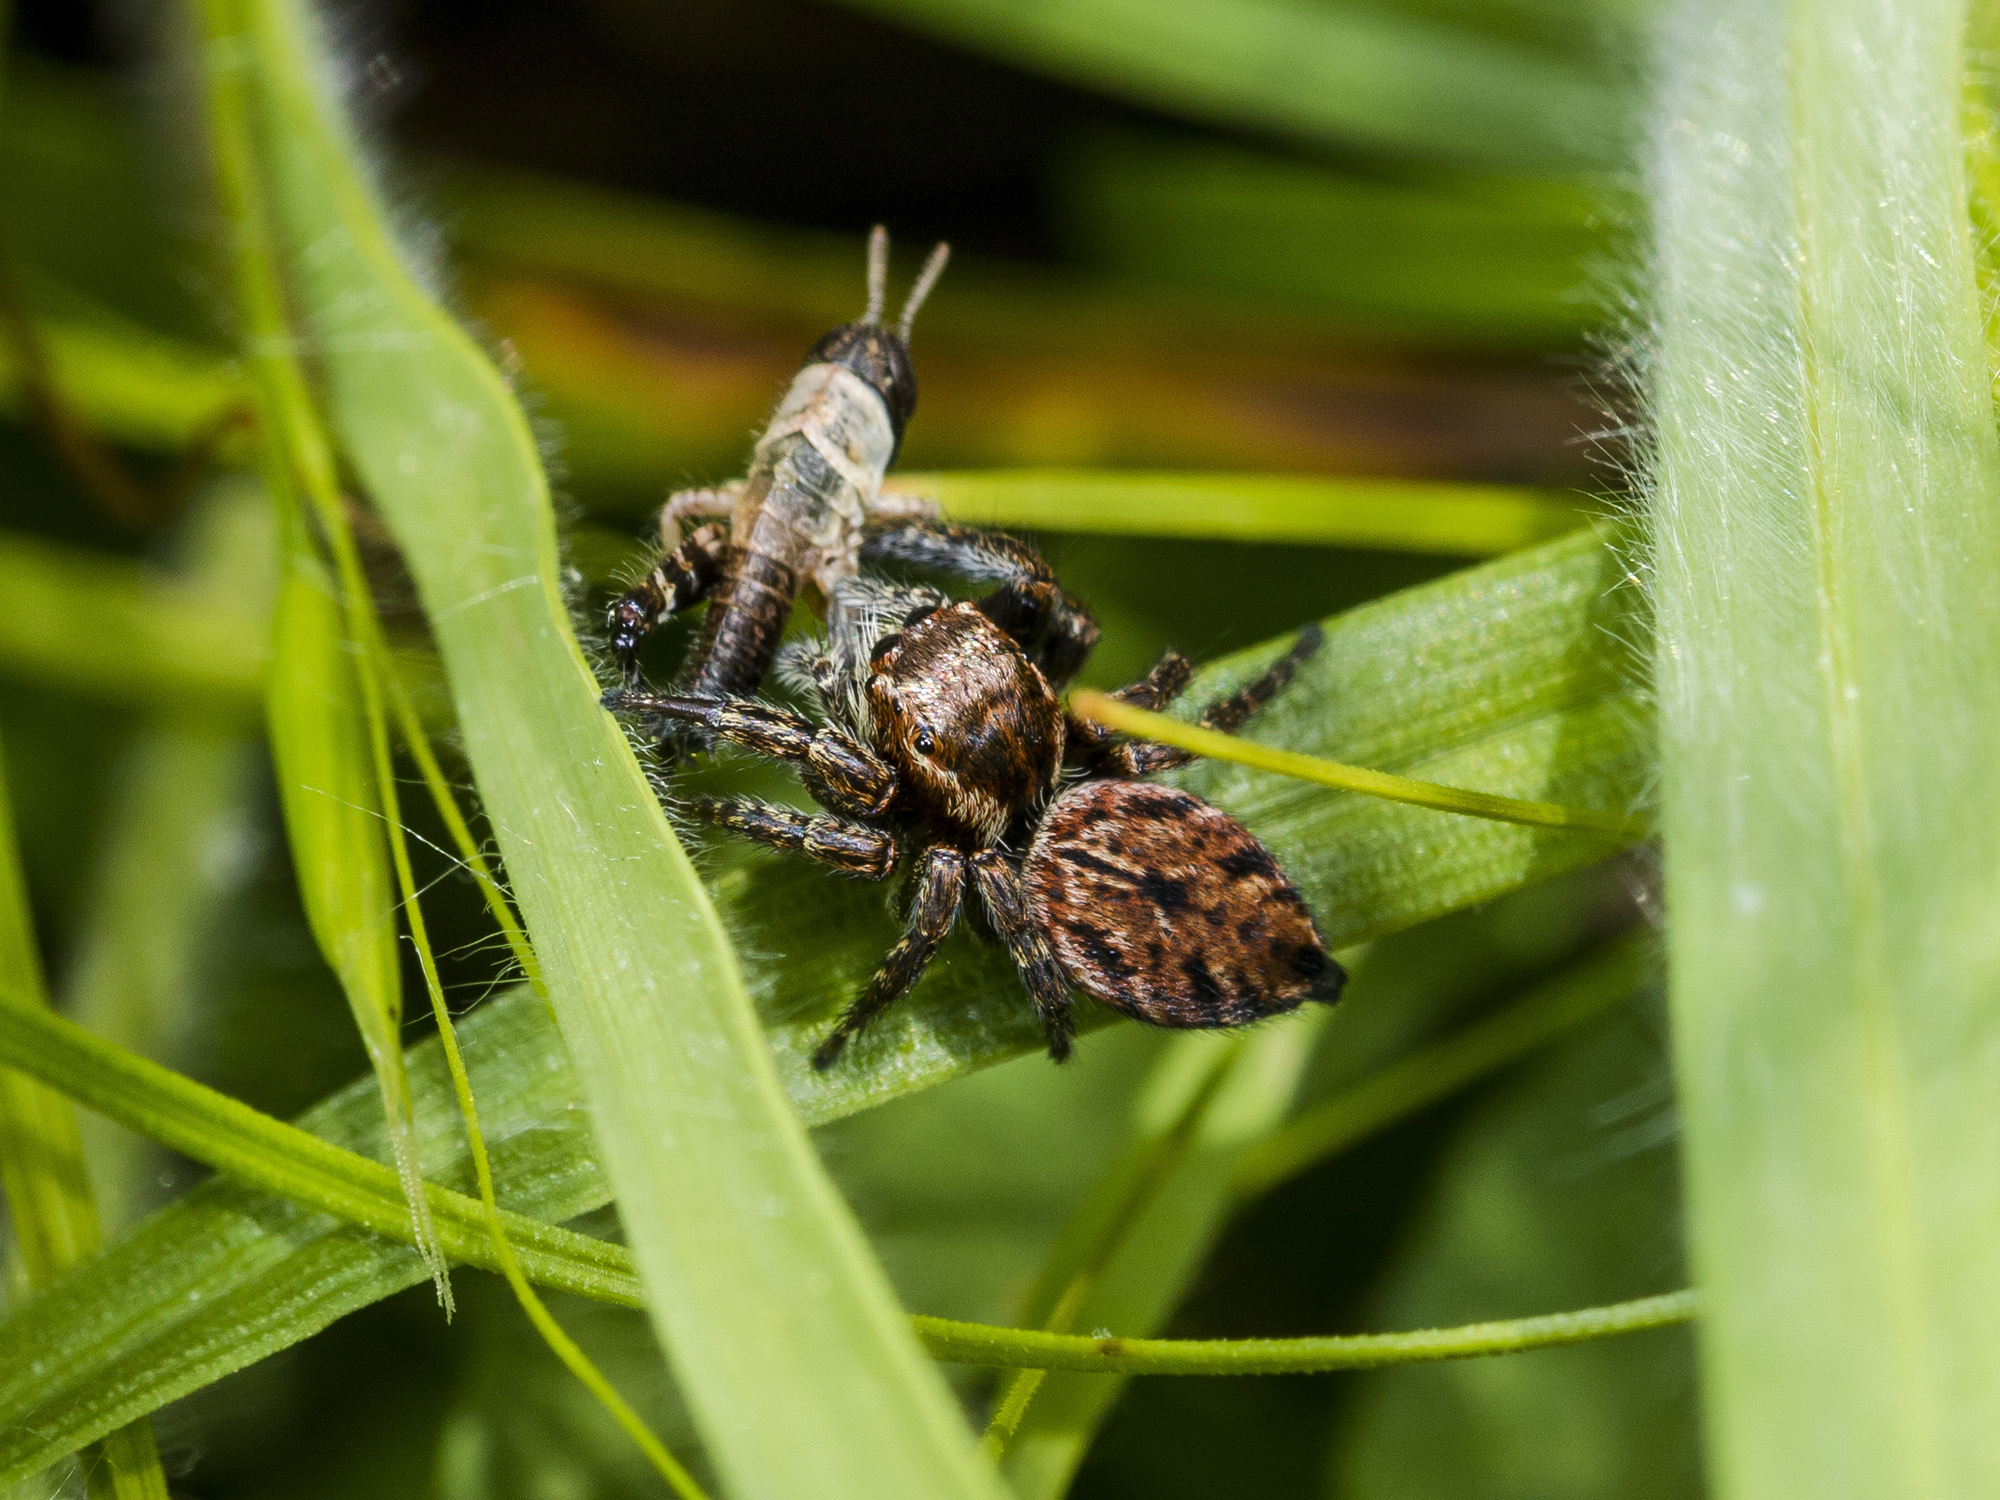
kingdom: Animalia
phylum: Arthropoda
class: Arachnida
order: Araneae
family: Salticidae
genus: Evarcha
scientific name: Evarcha michailovi
